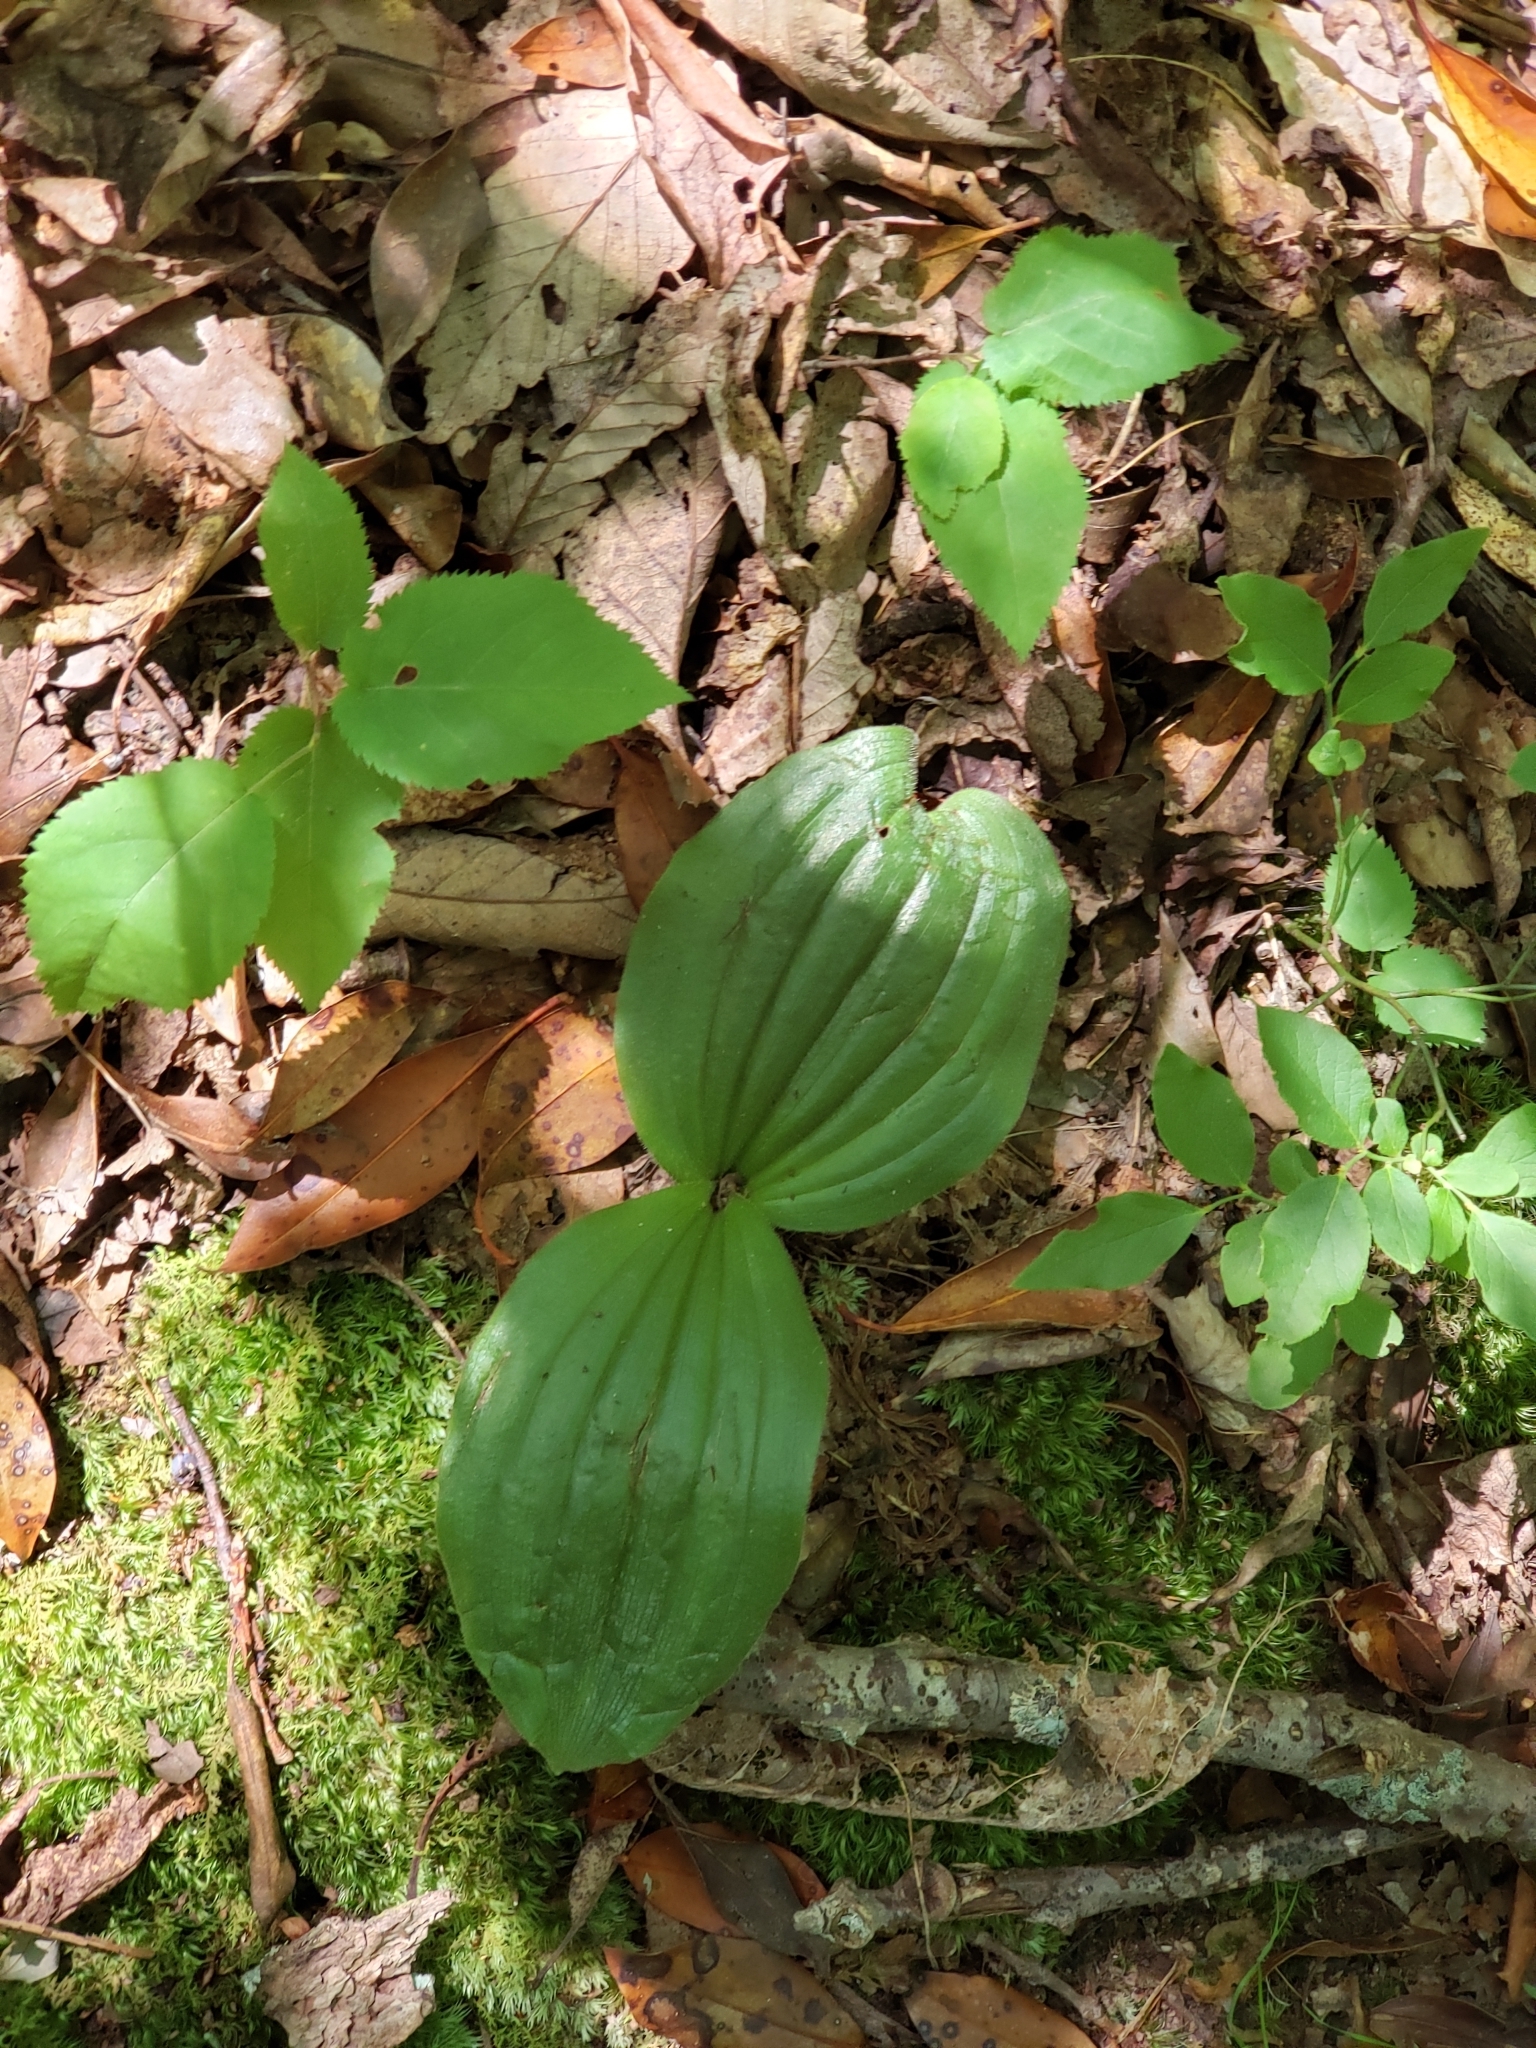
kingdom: Plantae
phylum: Tracheophyta
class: Liliopsida
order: Asparagales
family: Orchidaceae
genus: Cypripedium
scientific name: Cypripedium acaule
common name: Pink lady's-slipper
